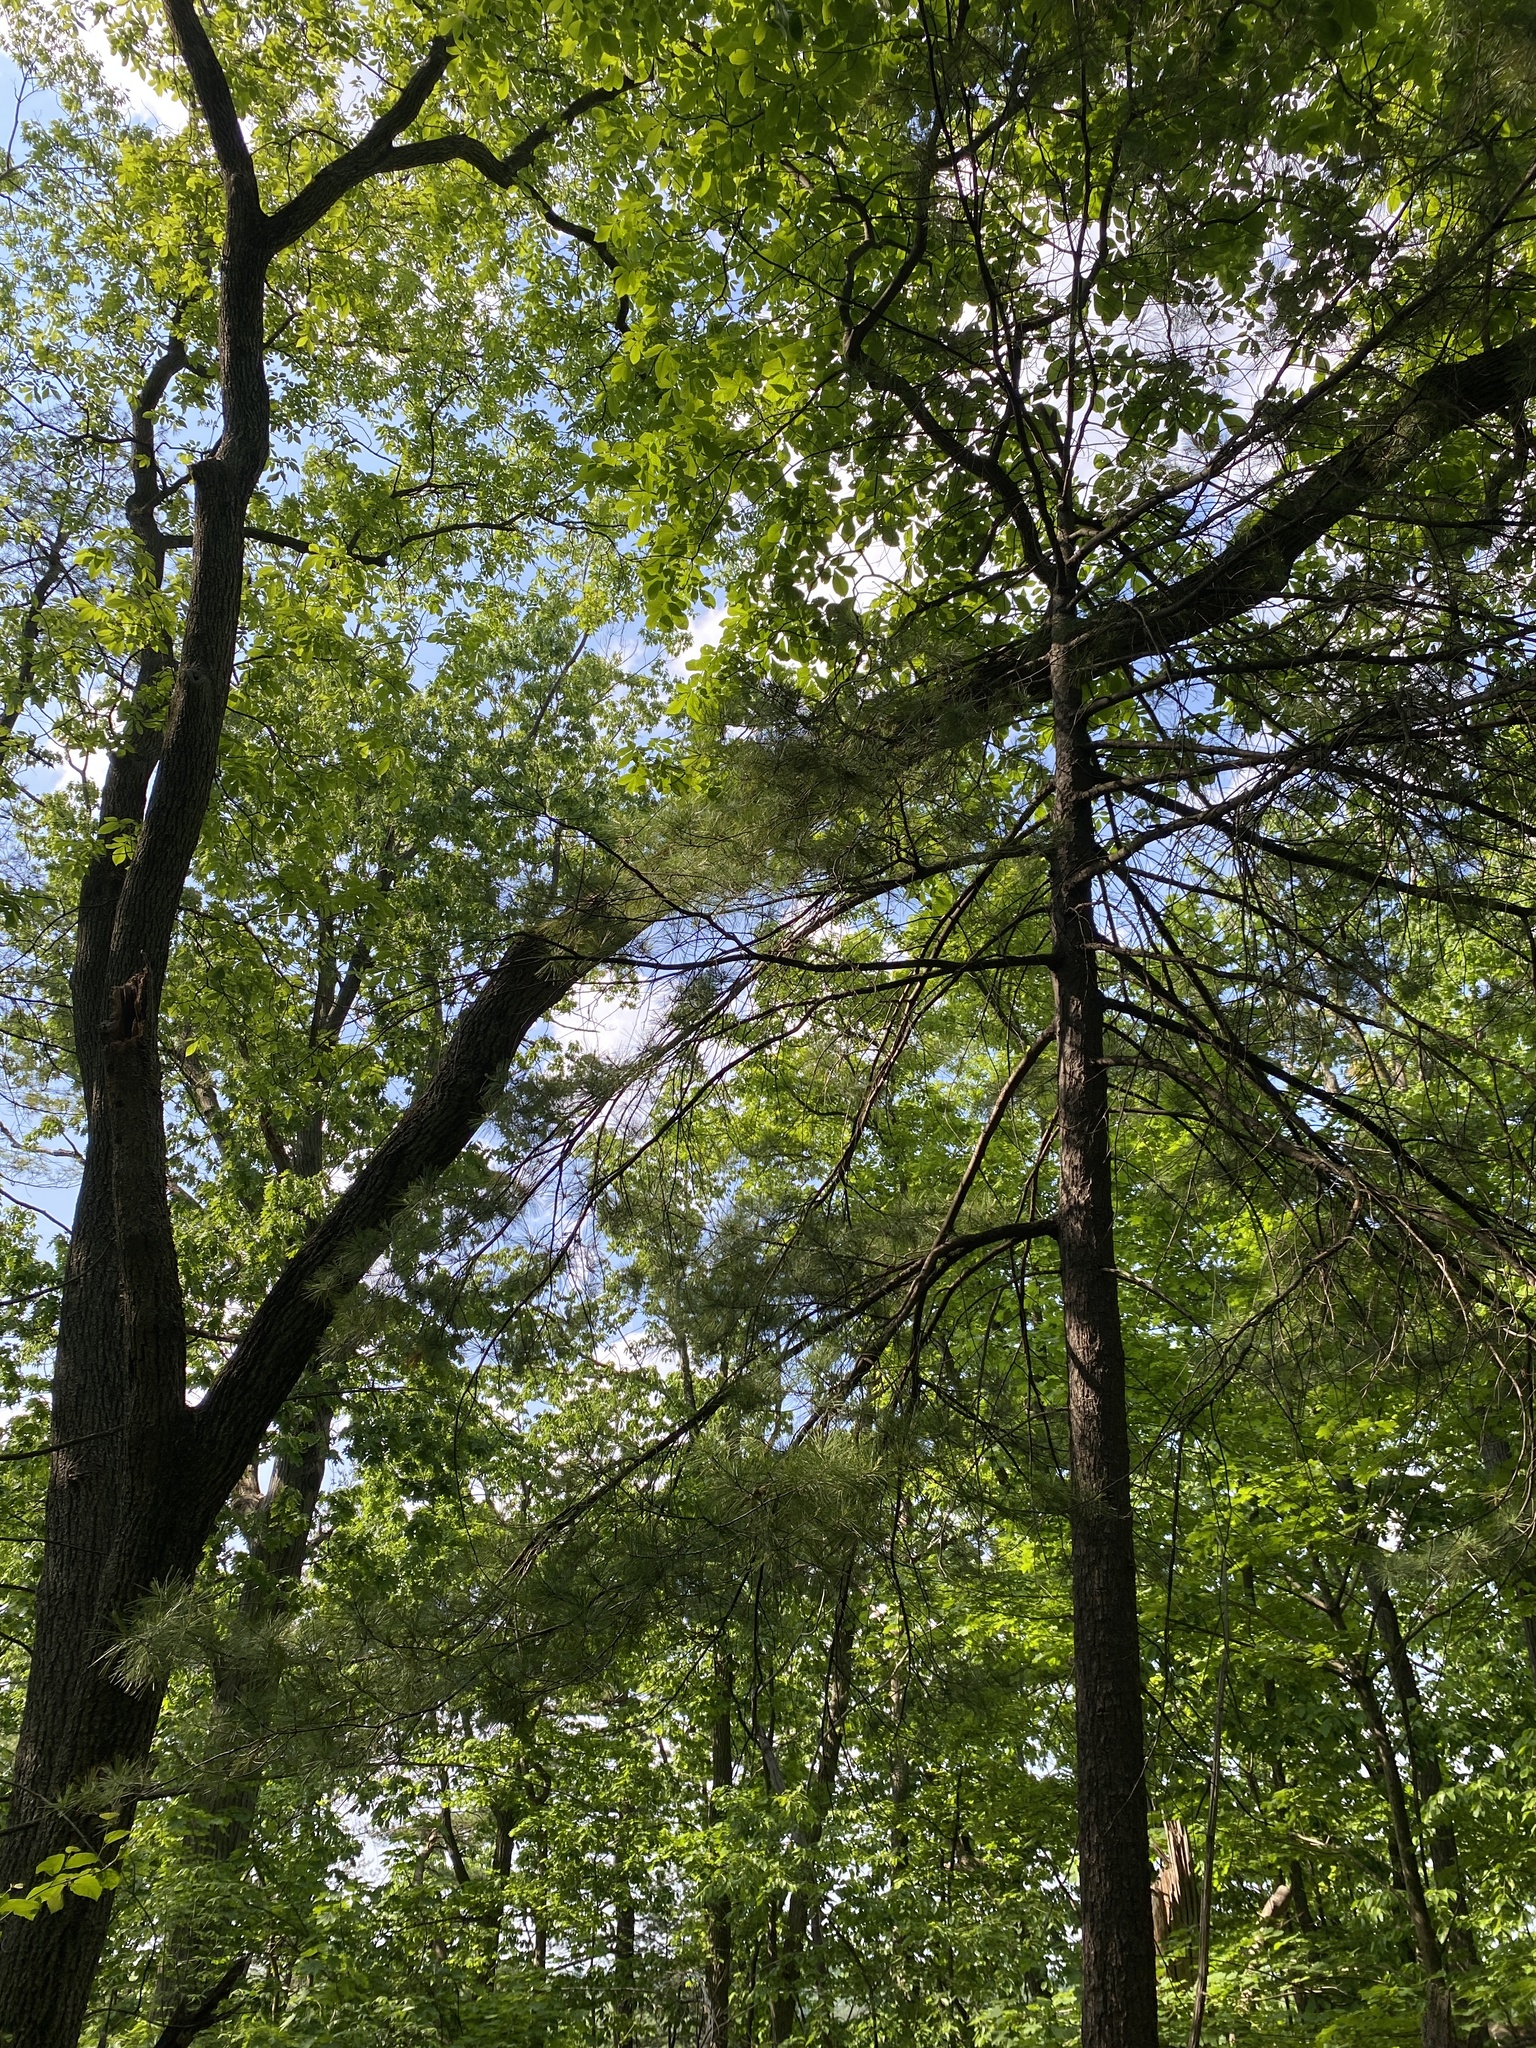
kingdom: Plantae
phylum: Tracheophyta
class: Pinopsida
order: Pinales
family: Pinaceae
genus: Pinus
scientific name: Pinus strobus
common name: Weymouth pine
